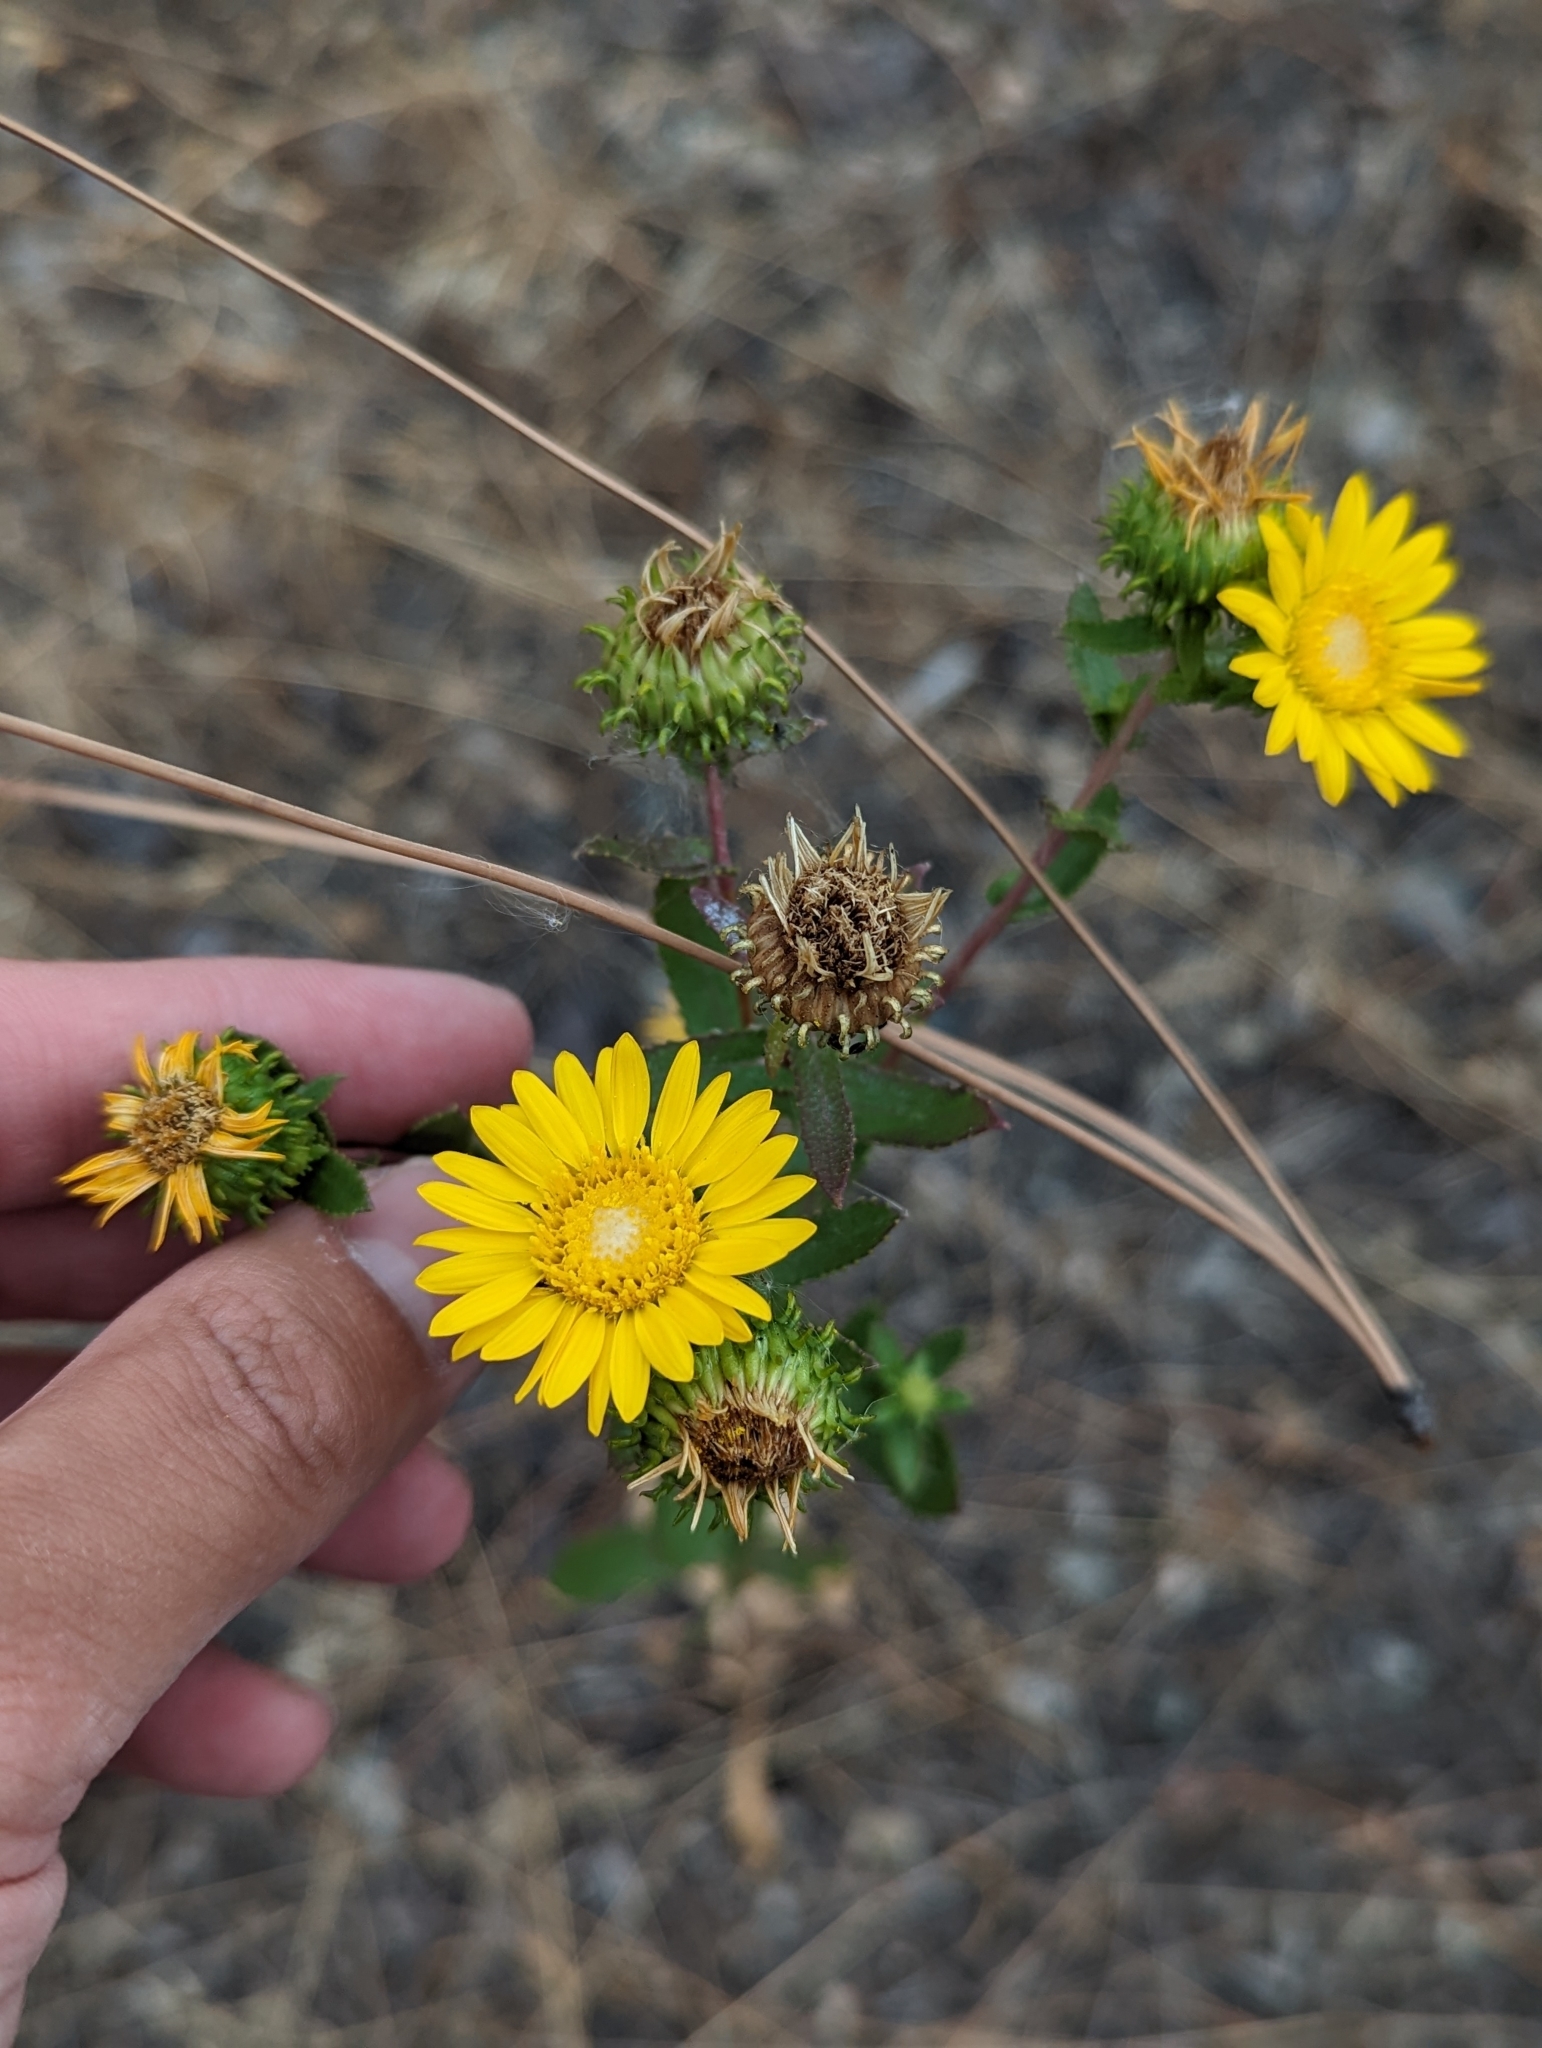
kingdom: Plantae
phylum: Tracheophyta
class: Magnoliopsida
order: Asterales
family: Asteraceae
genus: Grindelia
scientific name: Grindelia squarrosa
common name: Curly-cup gumweed
